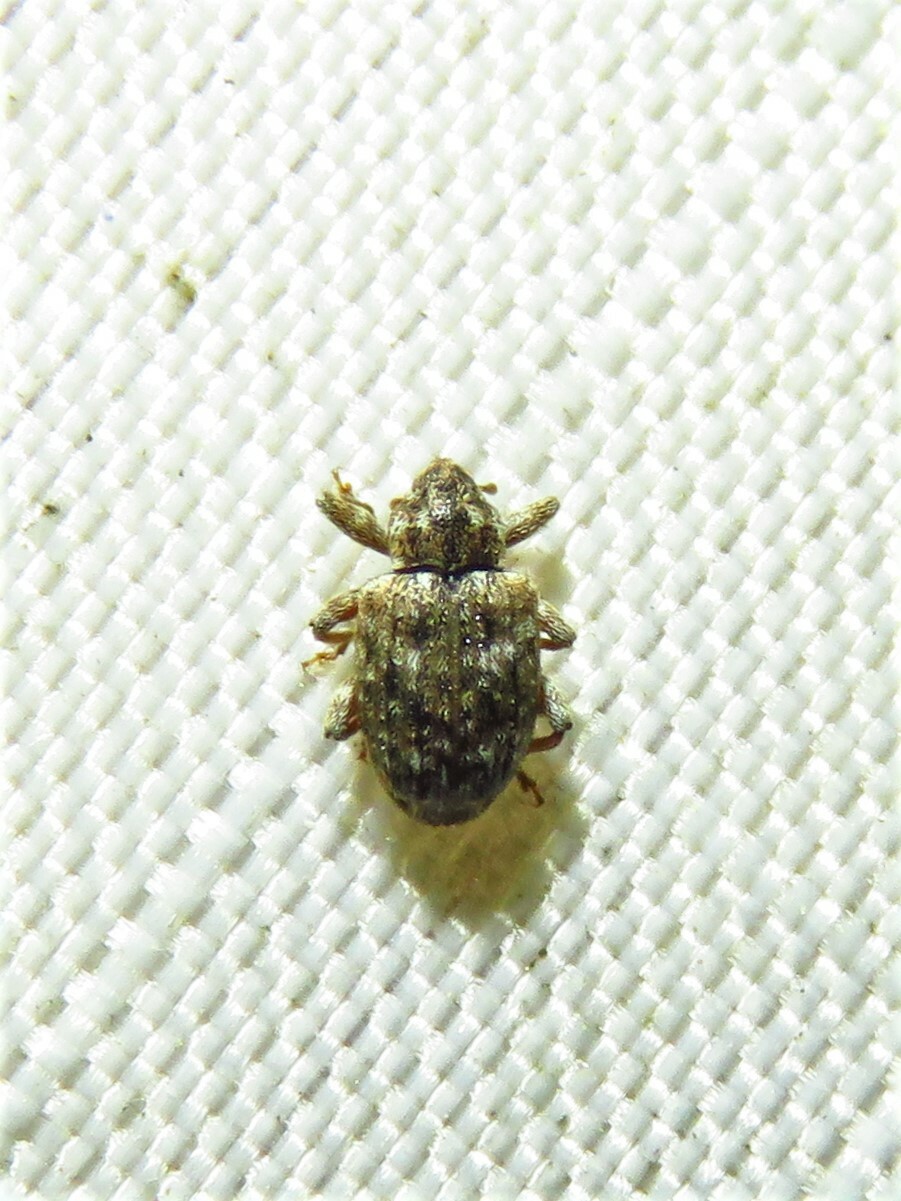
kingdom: Animalia
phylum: Arthropoda
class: Insecta
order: Coleoptera
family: Curculionidae
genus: Conotrachelus
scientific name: Conotrachelus recessus
